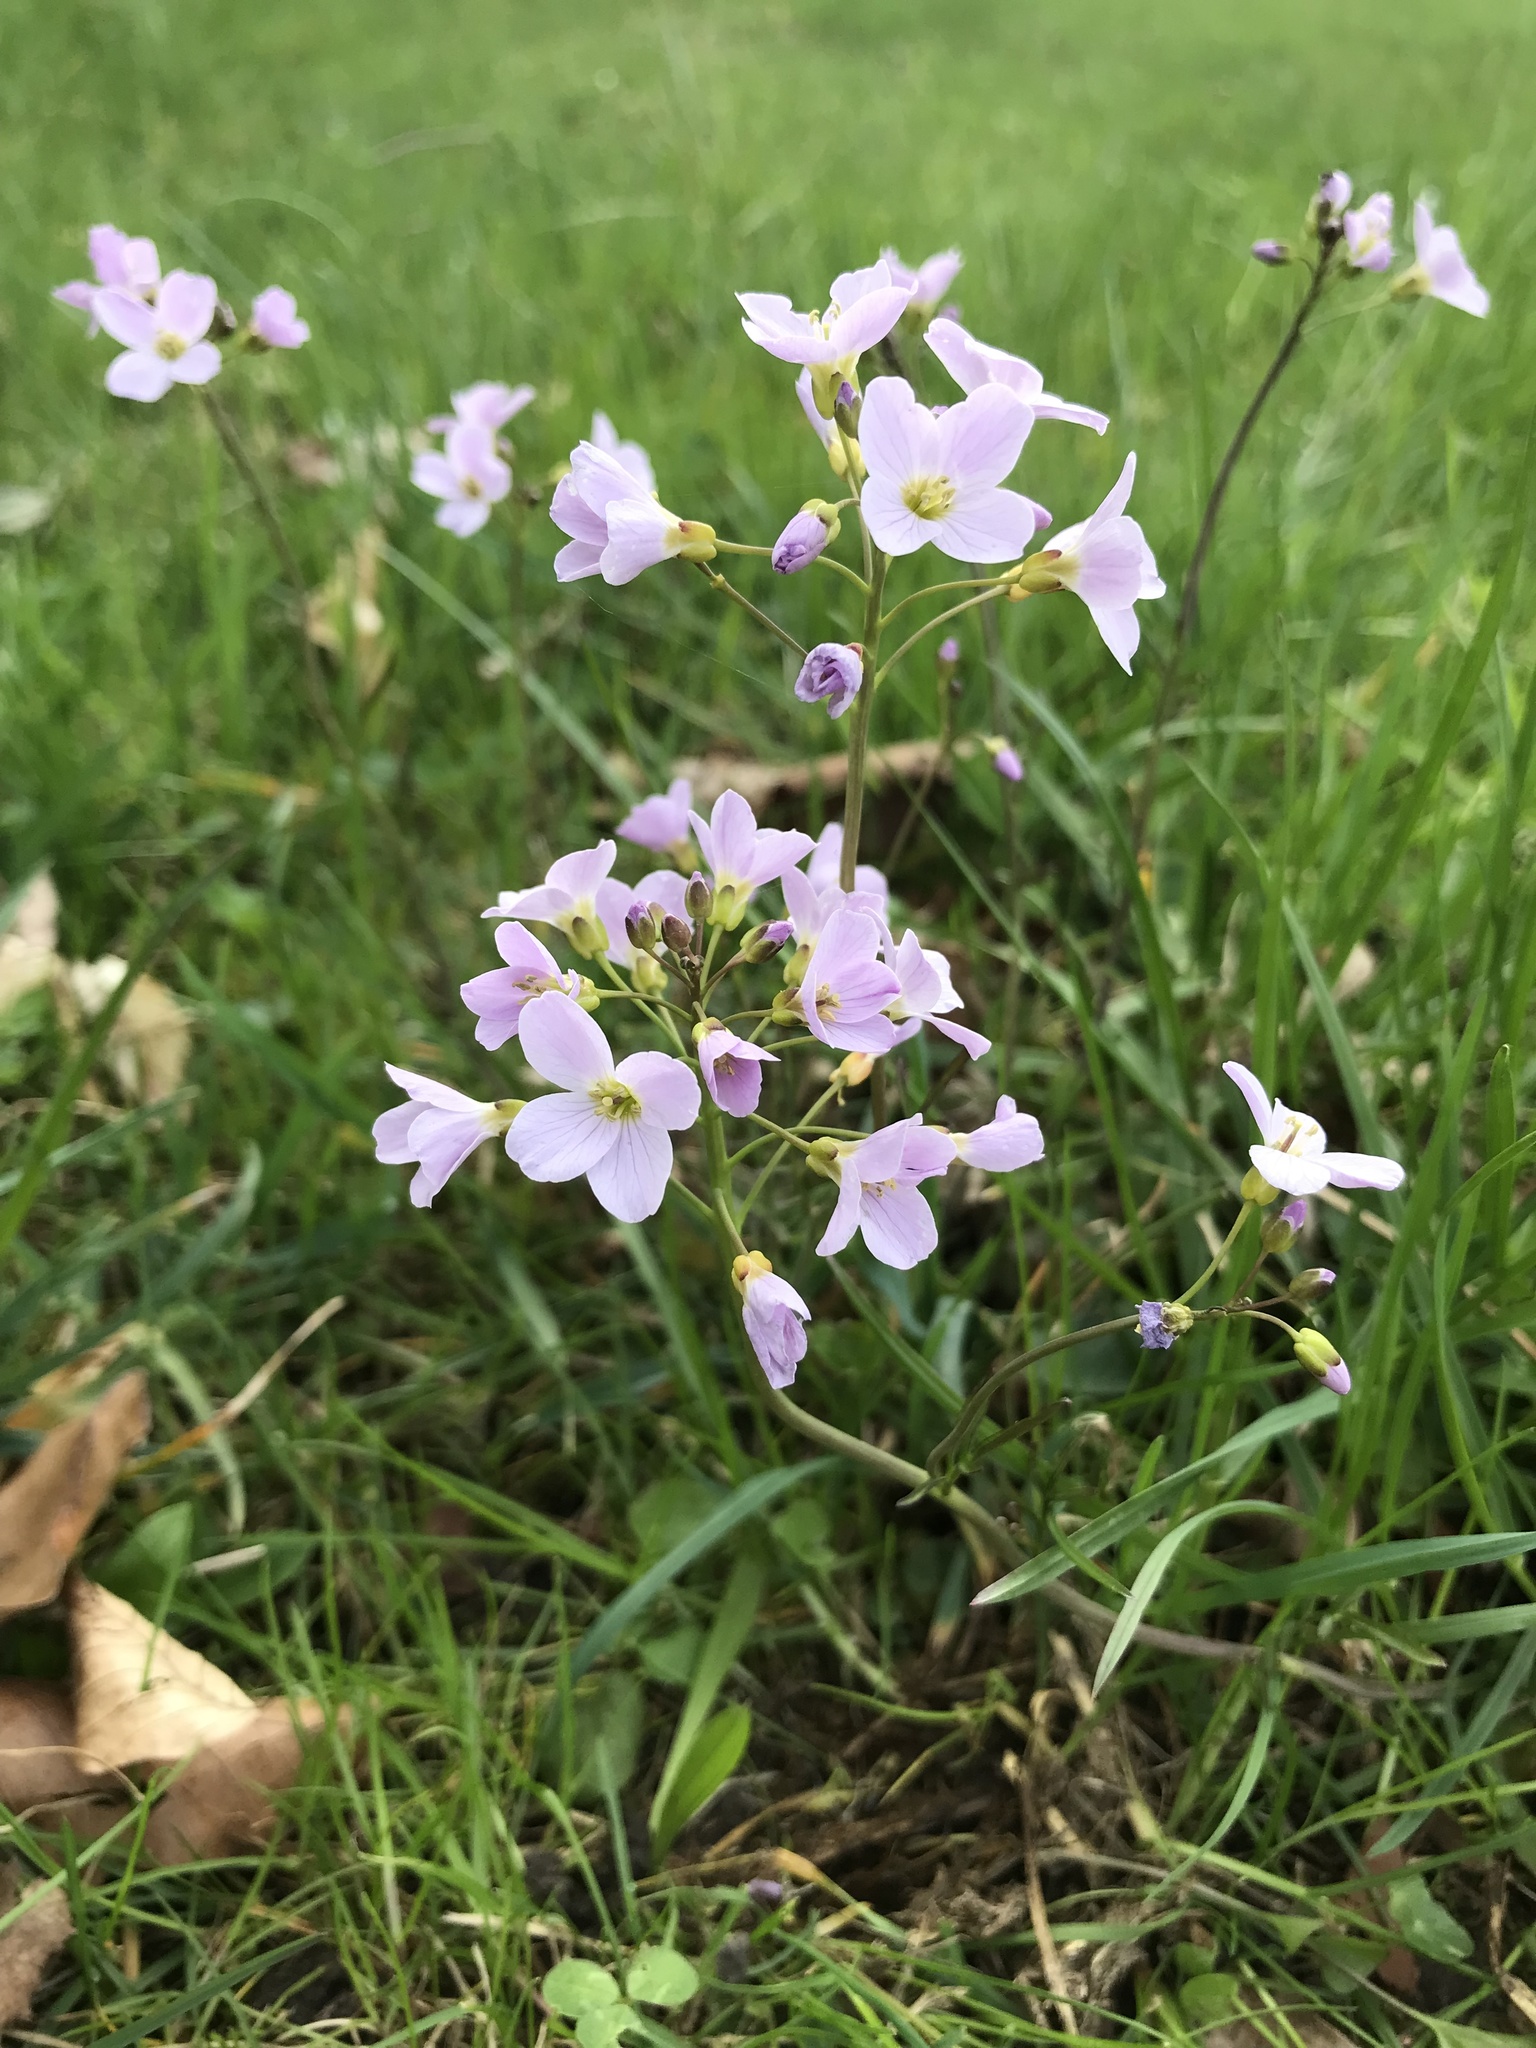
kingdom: Plantae
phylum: Tracheophyta
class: Magnoliopsida
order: Brassicales
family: Brassicaceae
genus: Cardamine
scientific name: Cardamine pratensis
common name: Cuckoo flower
